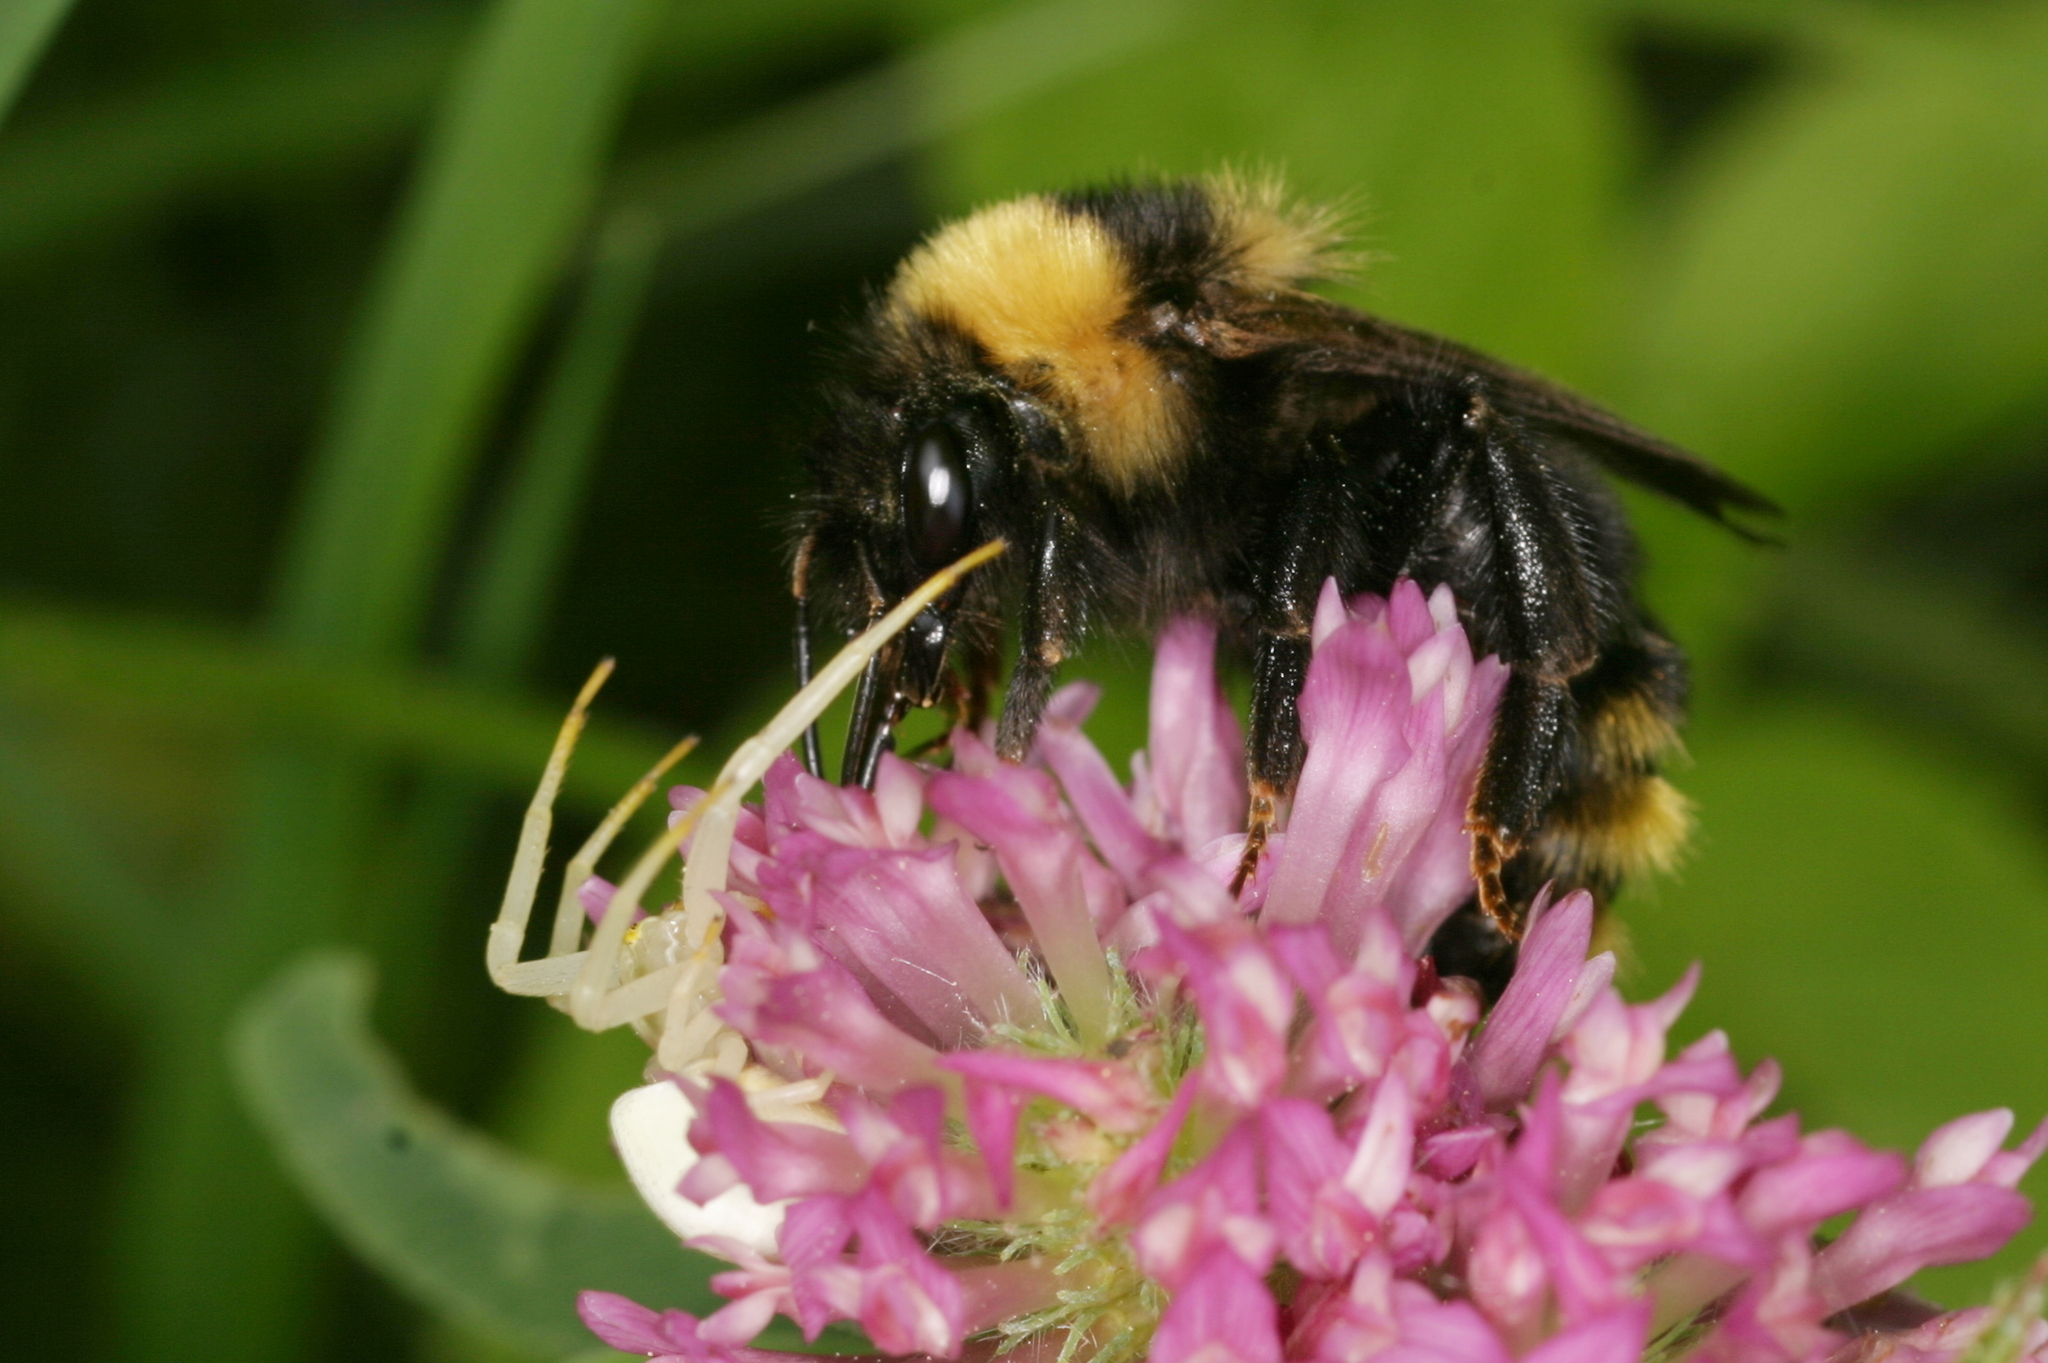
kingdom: Animalia
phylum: Arthropoda
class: Insecta
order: Hymenoptera
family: Apidae
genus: Bombus
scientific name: Bombus campestris
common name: Field cuckoo-bee
